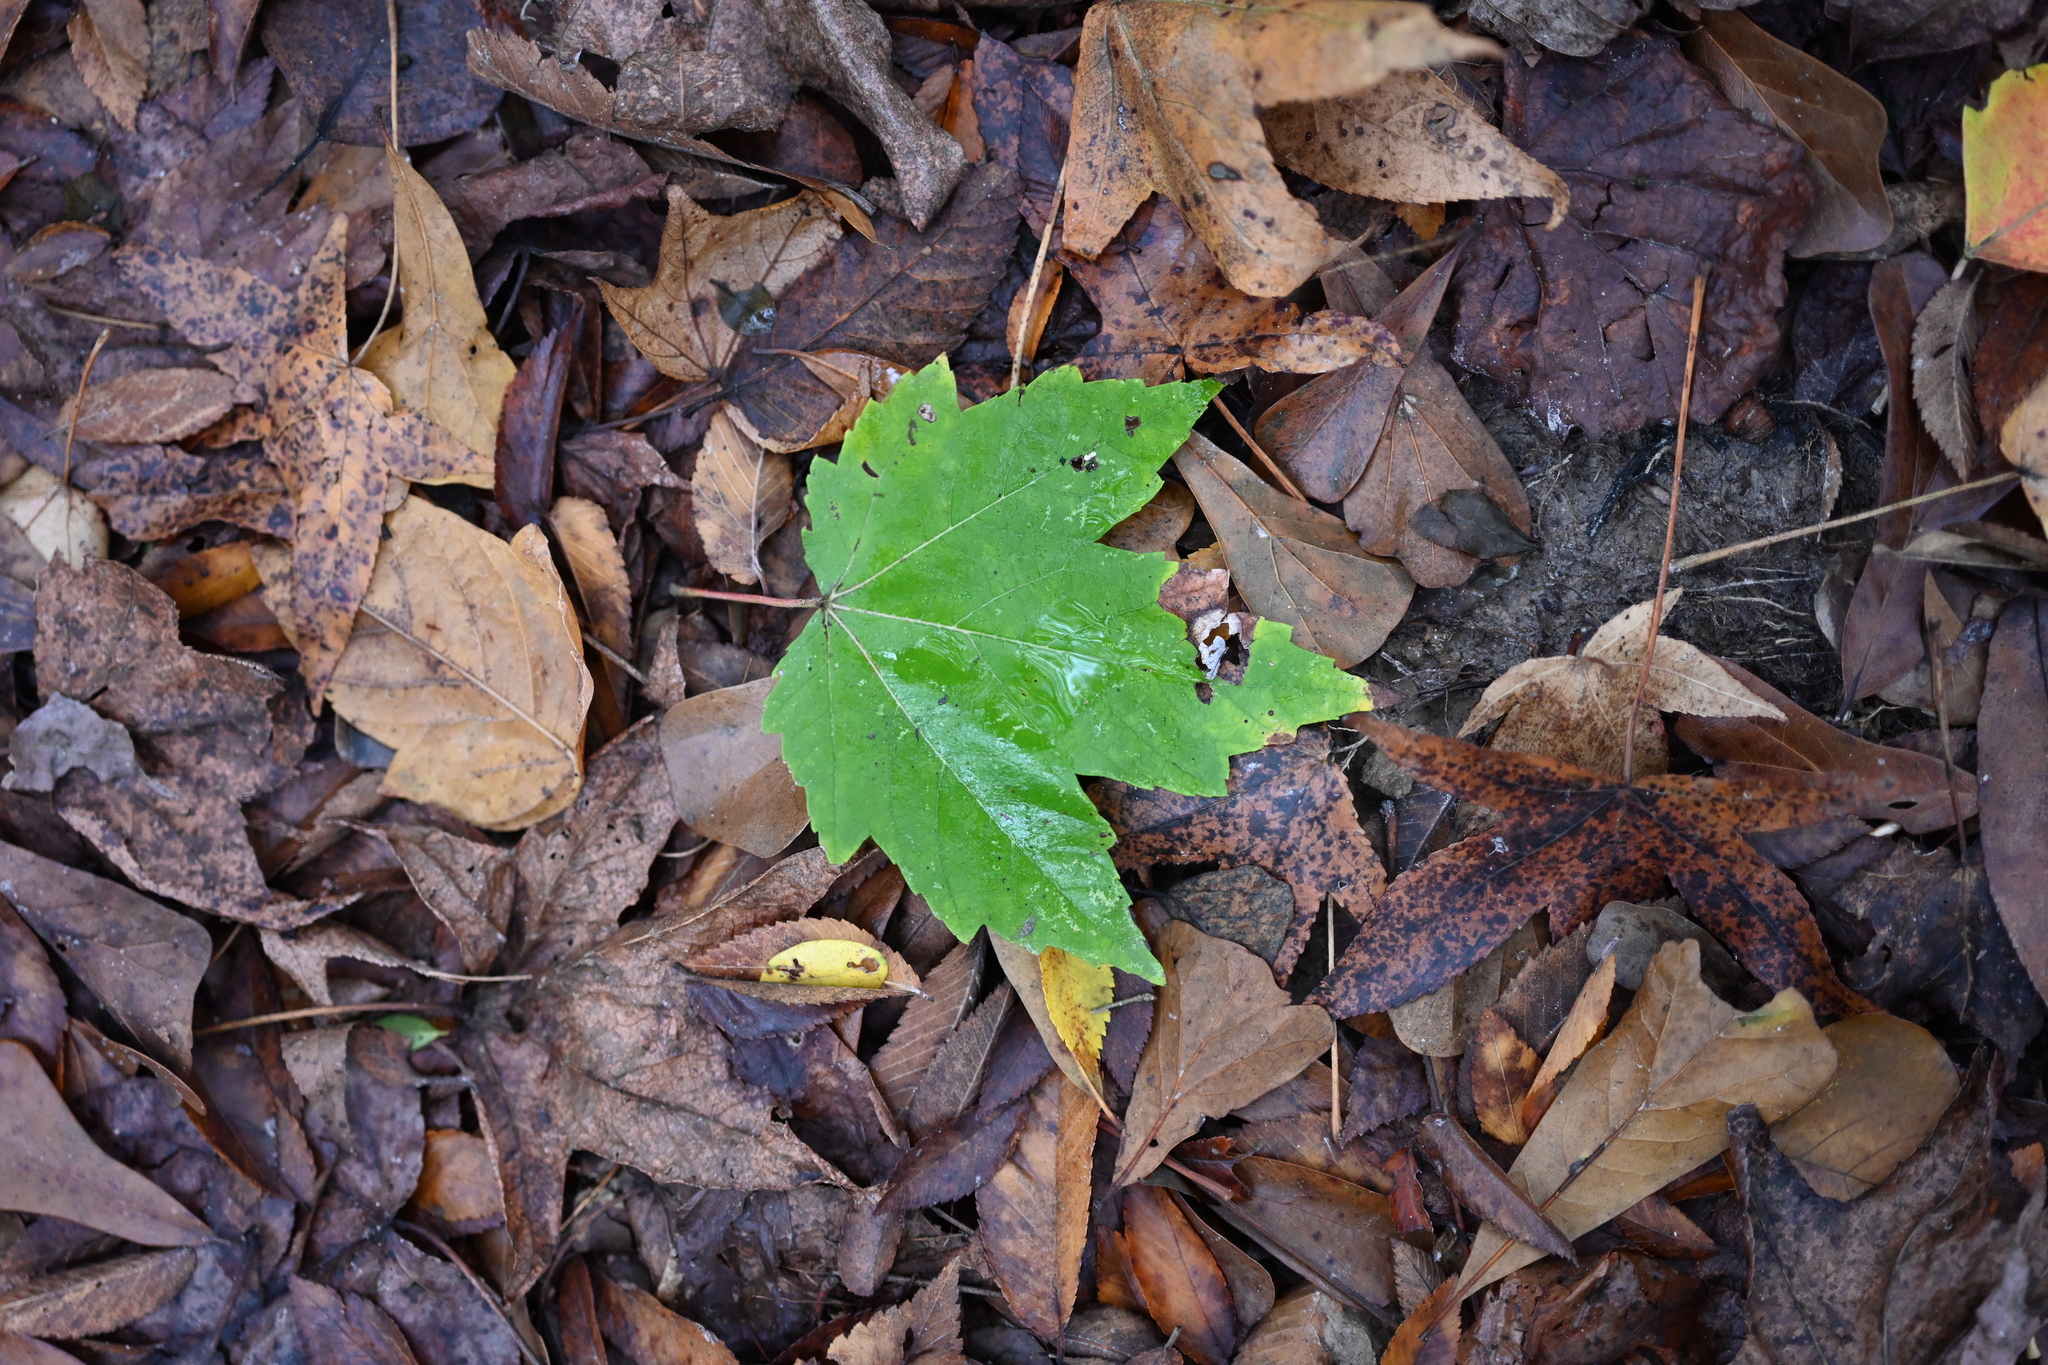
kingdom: Plantae
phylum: Tracheophyta
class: Magnoliopsida
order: Sapindales
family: Sapindaceae
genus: Acer
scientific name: Acer rubrum
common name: Red maple
